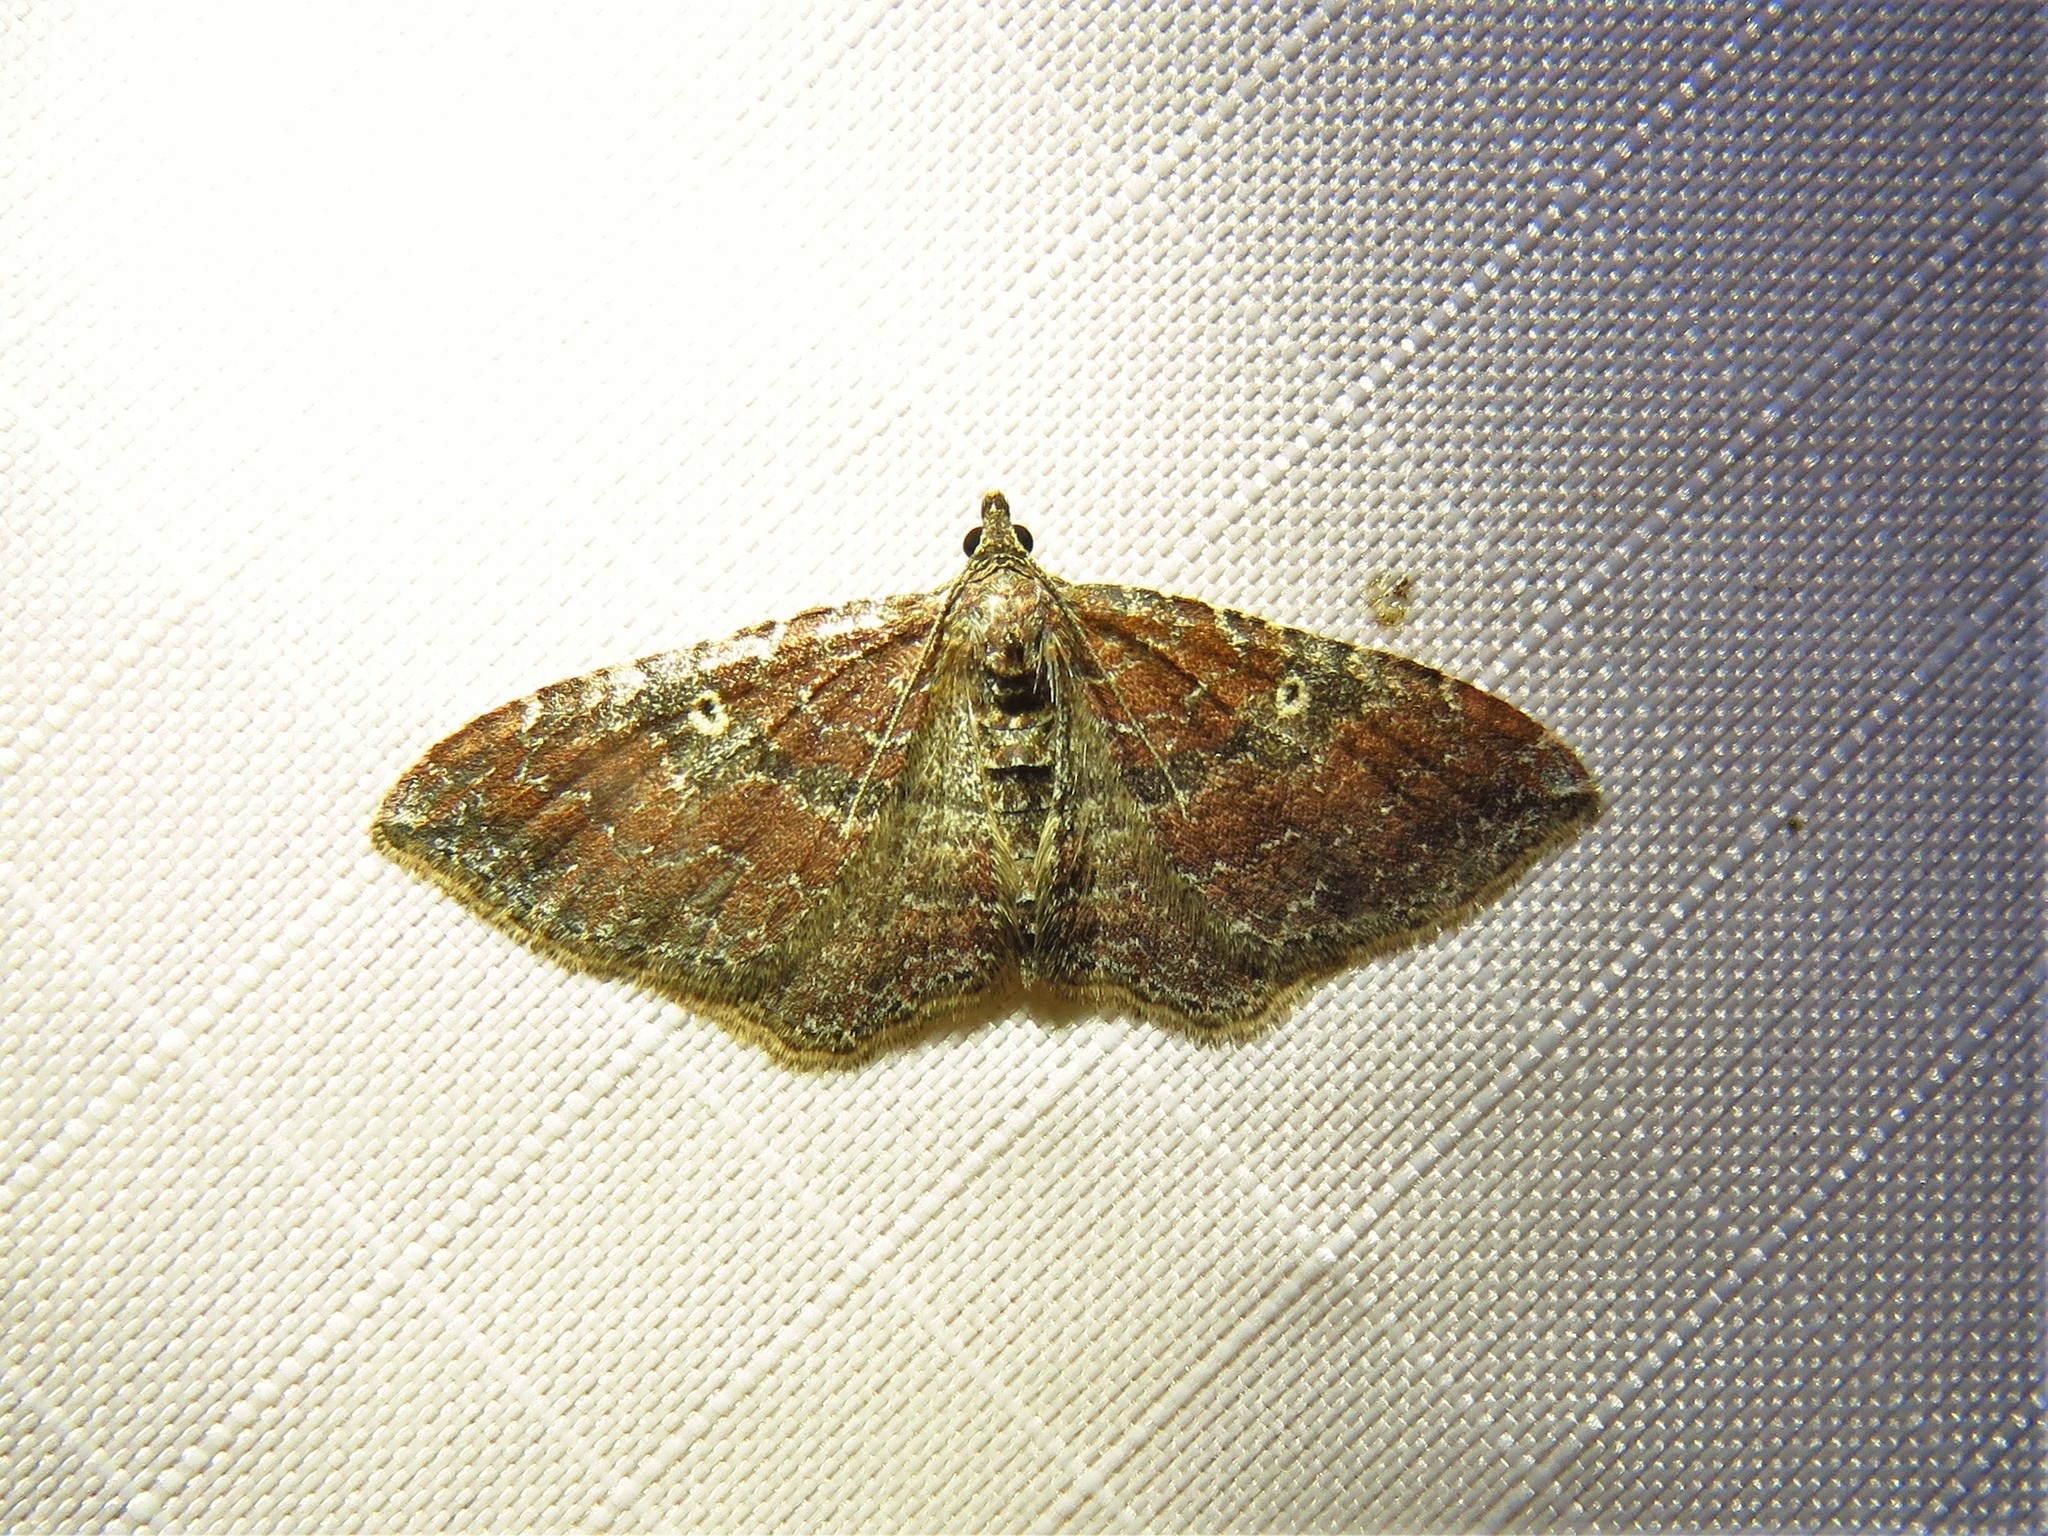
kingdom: Animalia
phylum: Arthropoda
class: Insecta
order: Lepidoptera
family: Geometridae
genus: Orthonama
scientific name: Orthonama obstipata
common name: The gem
